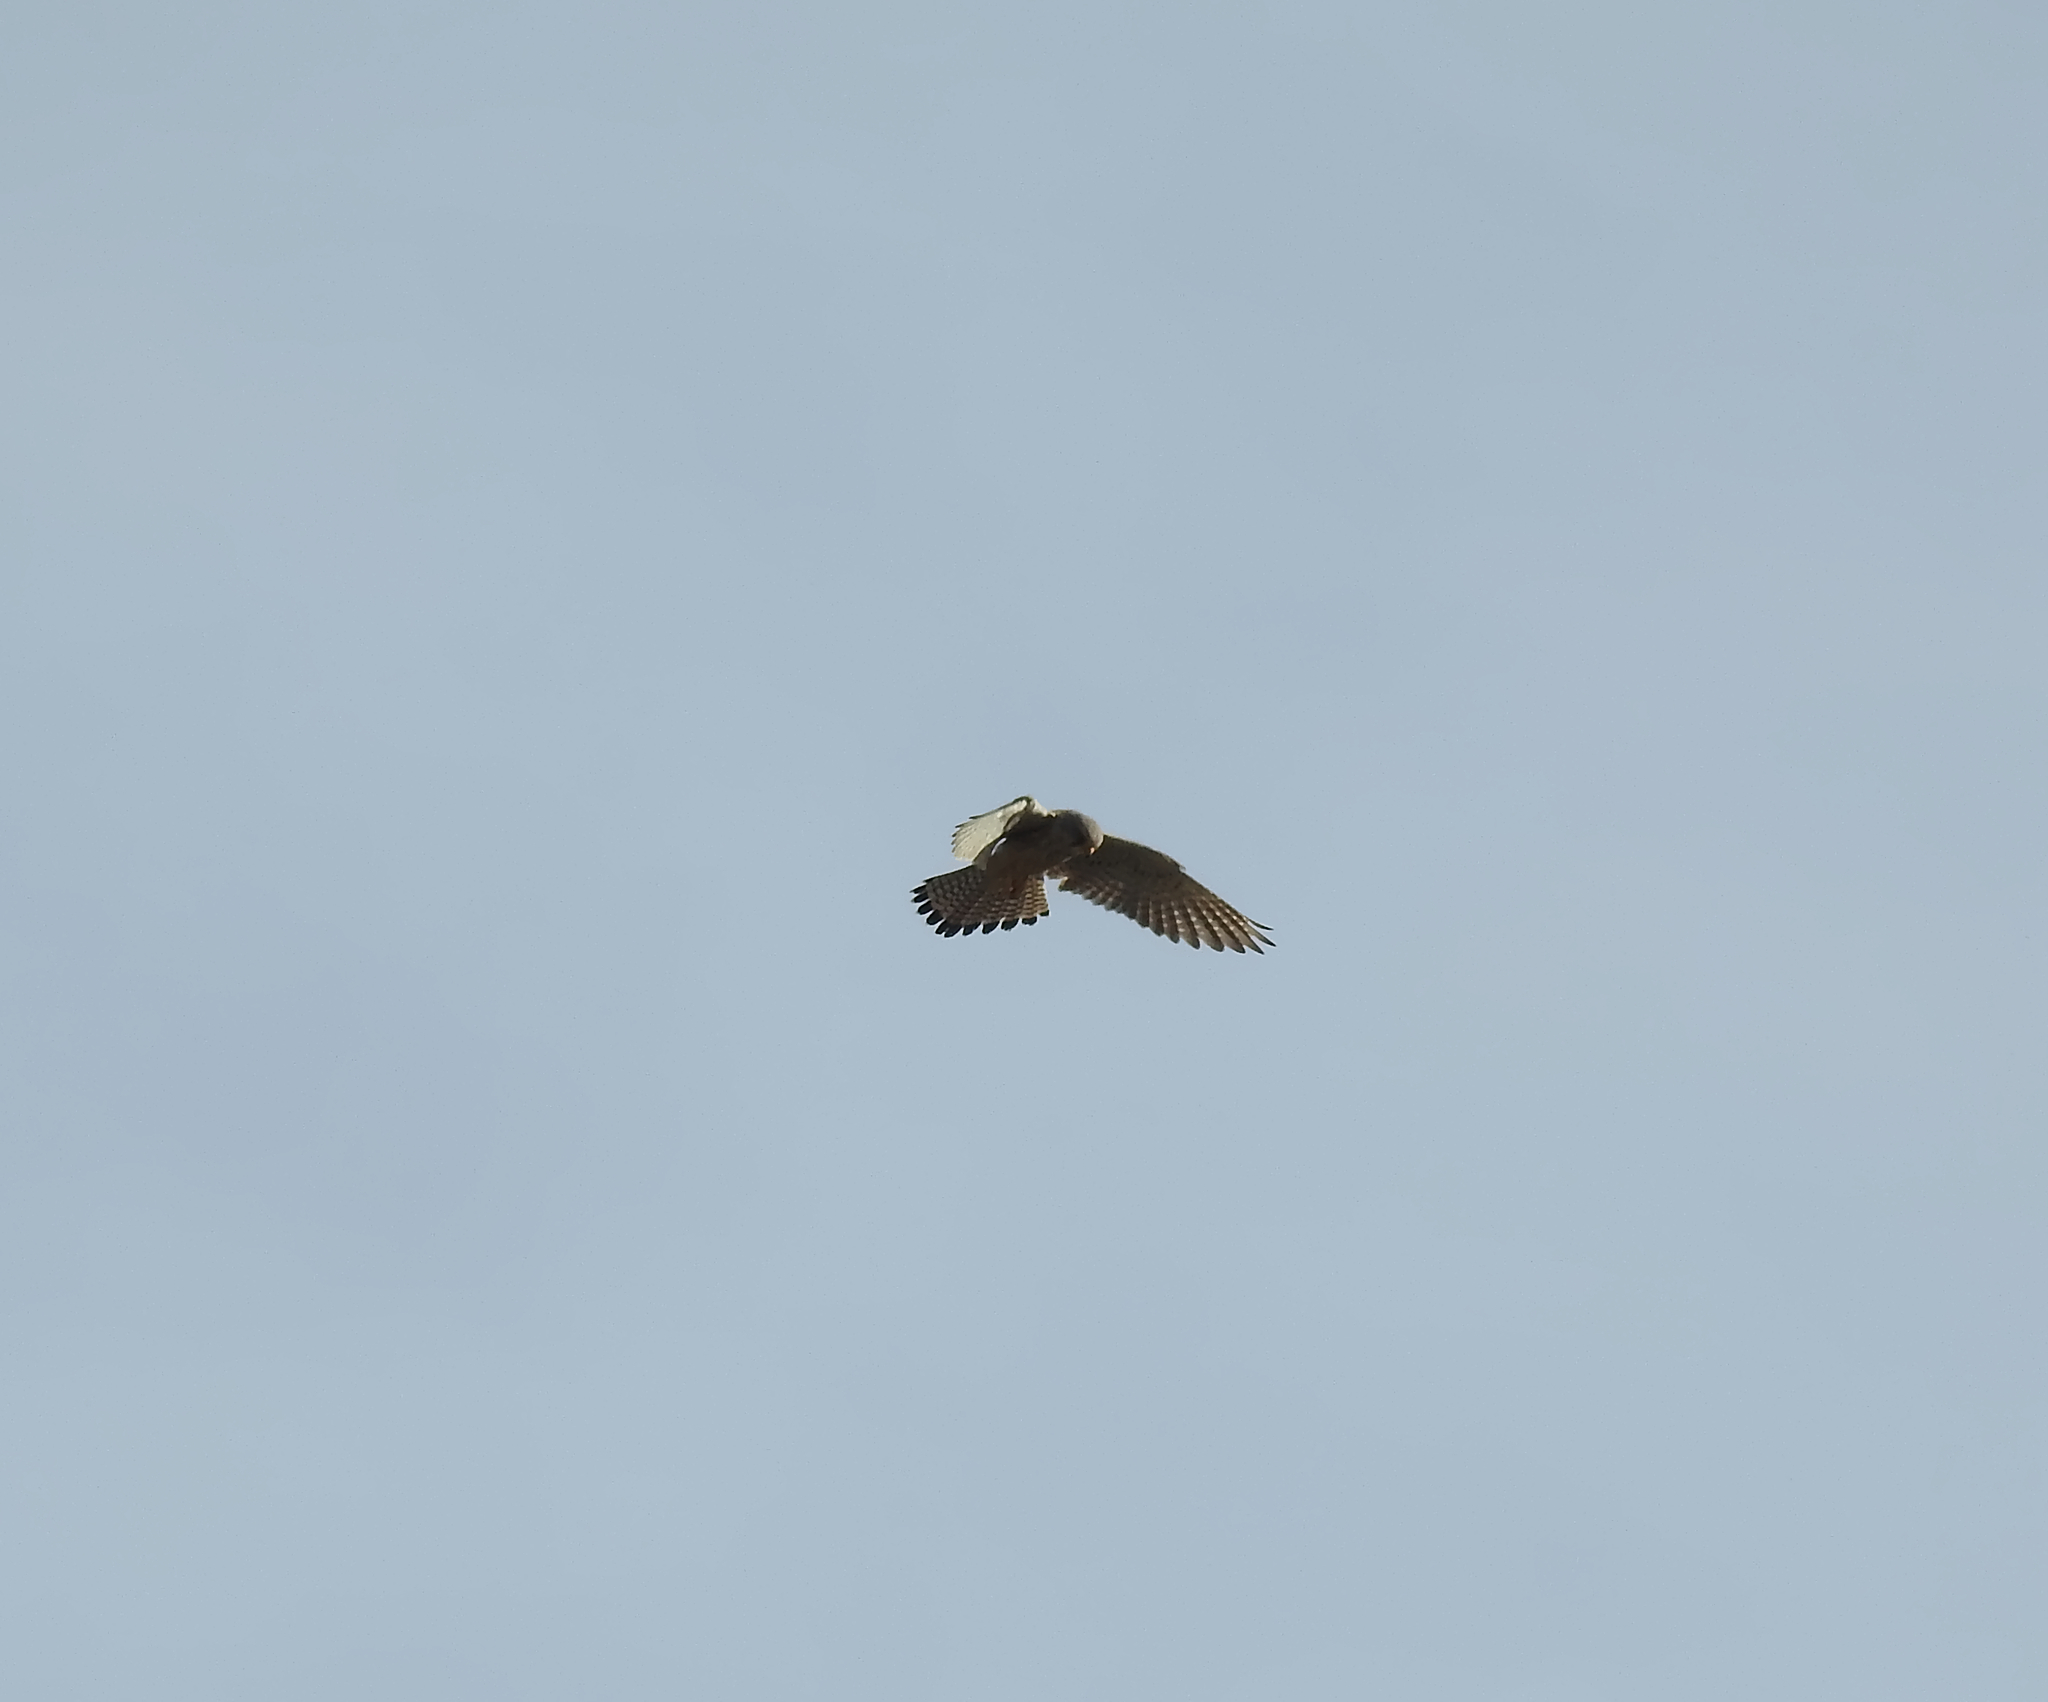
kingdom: Animalia
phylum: Chordata
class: Aves
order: Falconiformes
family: Falconidae
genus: Falco
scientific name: Falco tinnunculus
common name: Common kestrel
